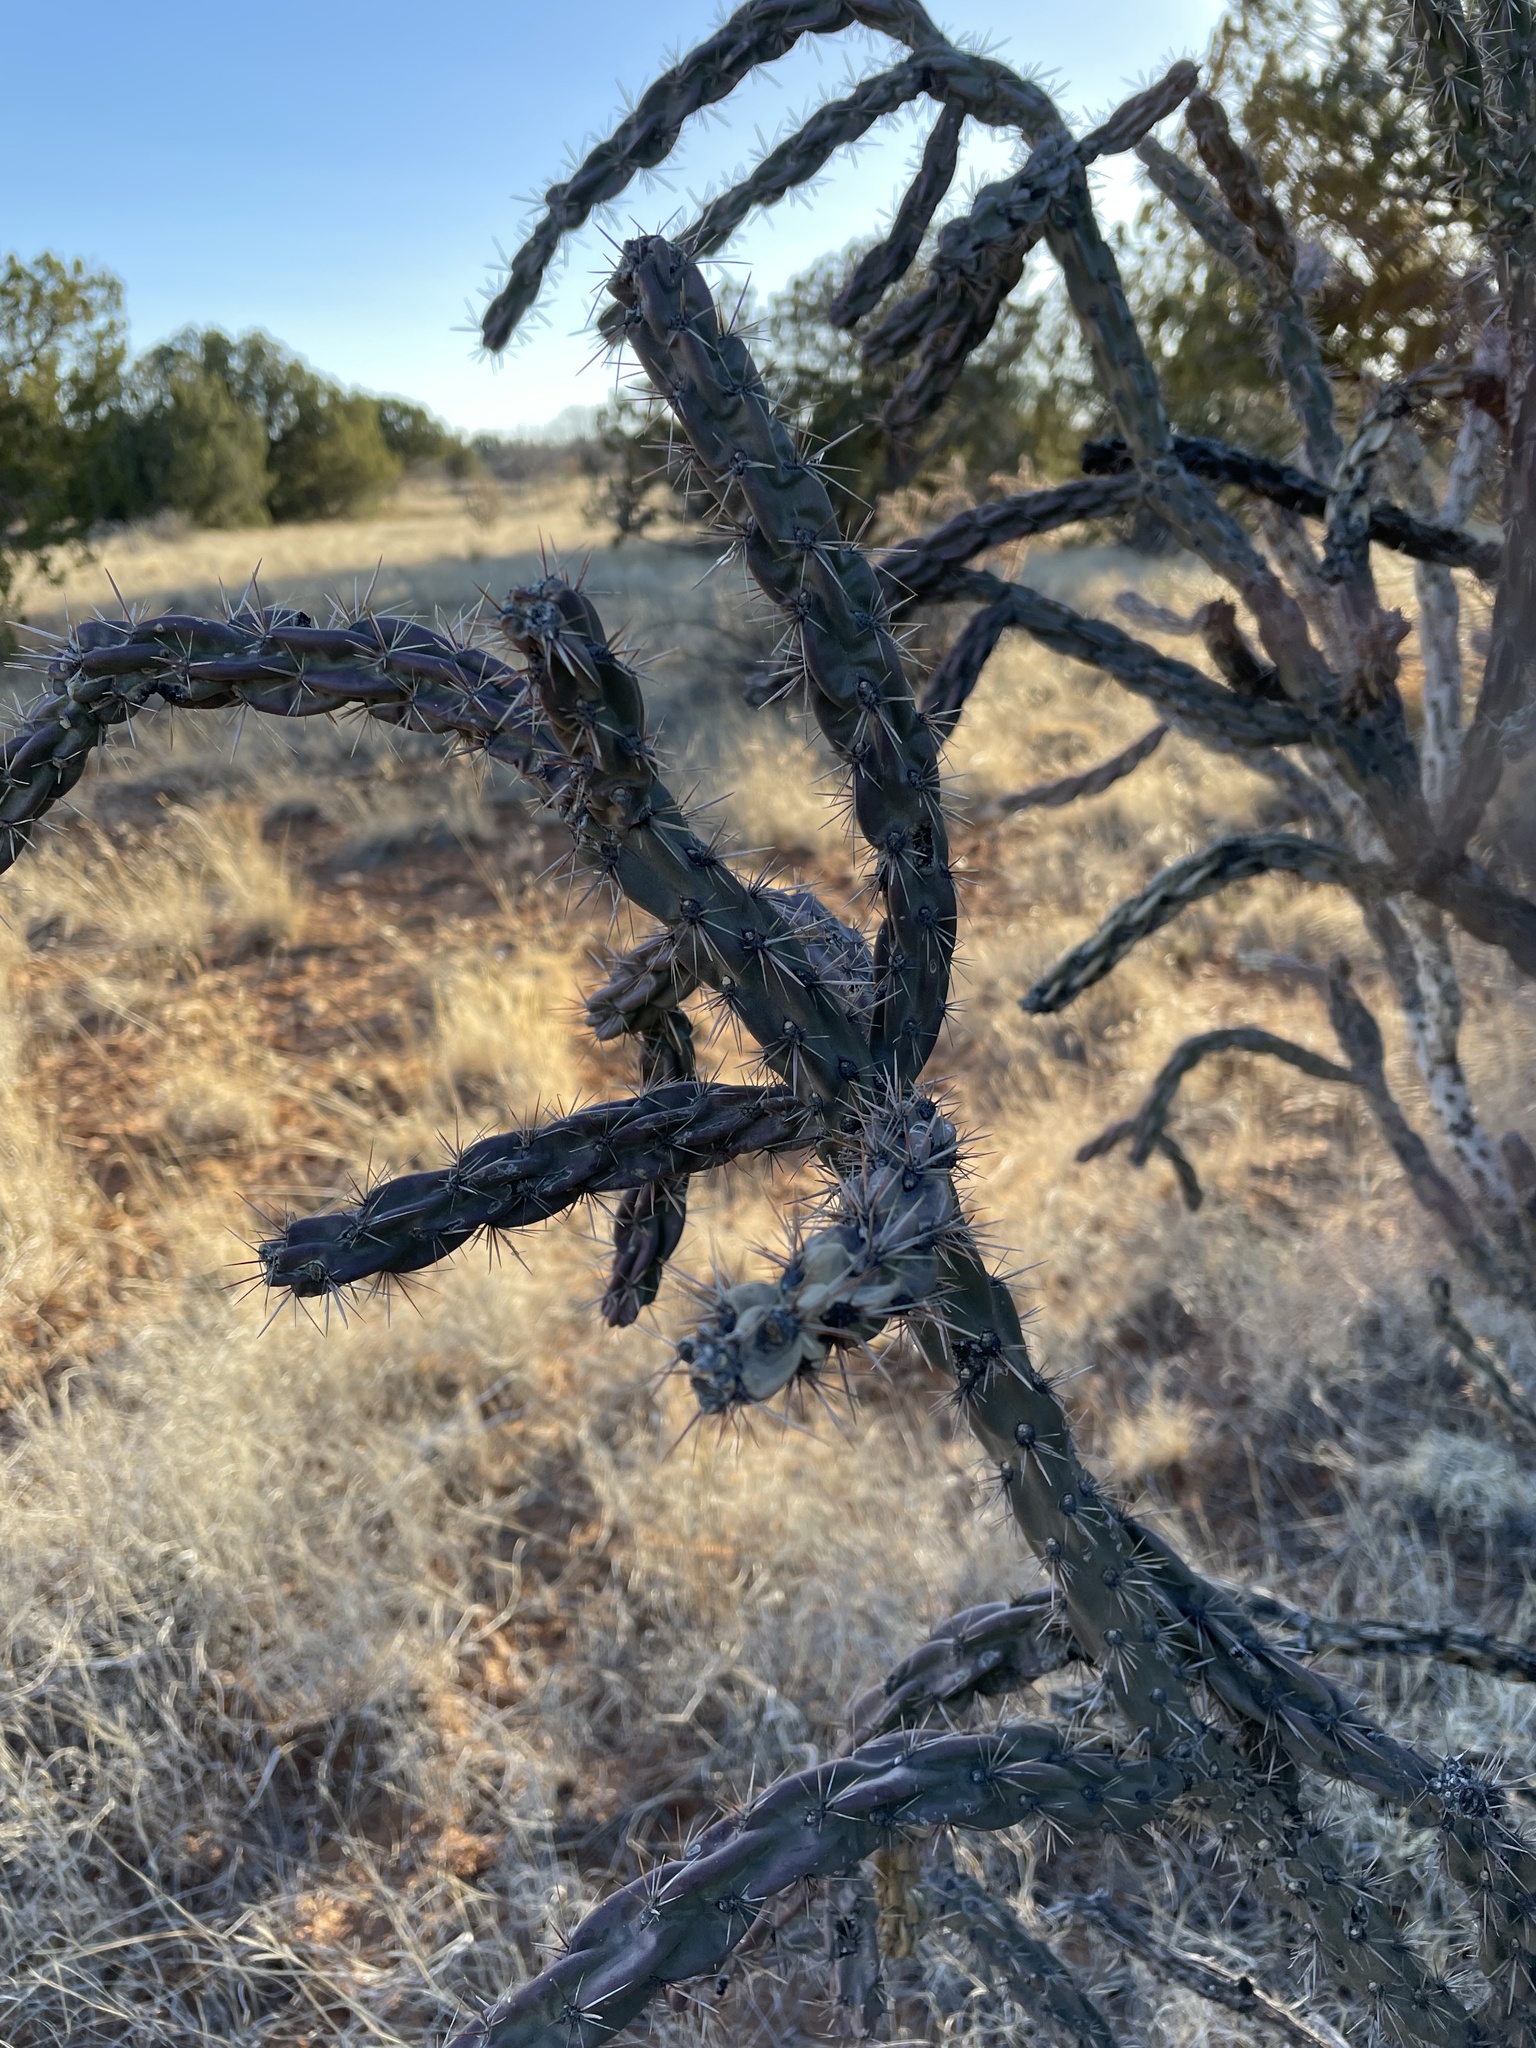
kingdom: Plantae
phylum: Tracheophyta
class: Magnoliopsida
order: Caryophyllales
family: Cactaceae
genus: Cylindropuntia
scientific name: Cylindropuntia imbricata
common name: Candelabrum cactus
